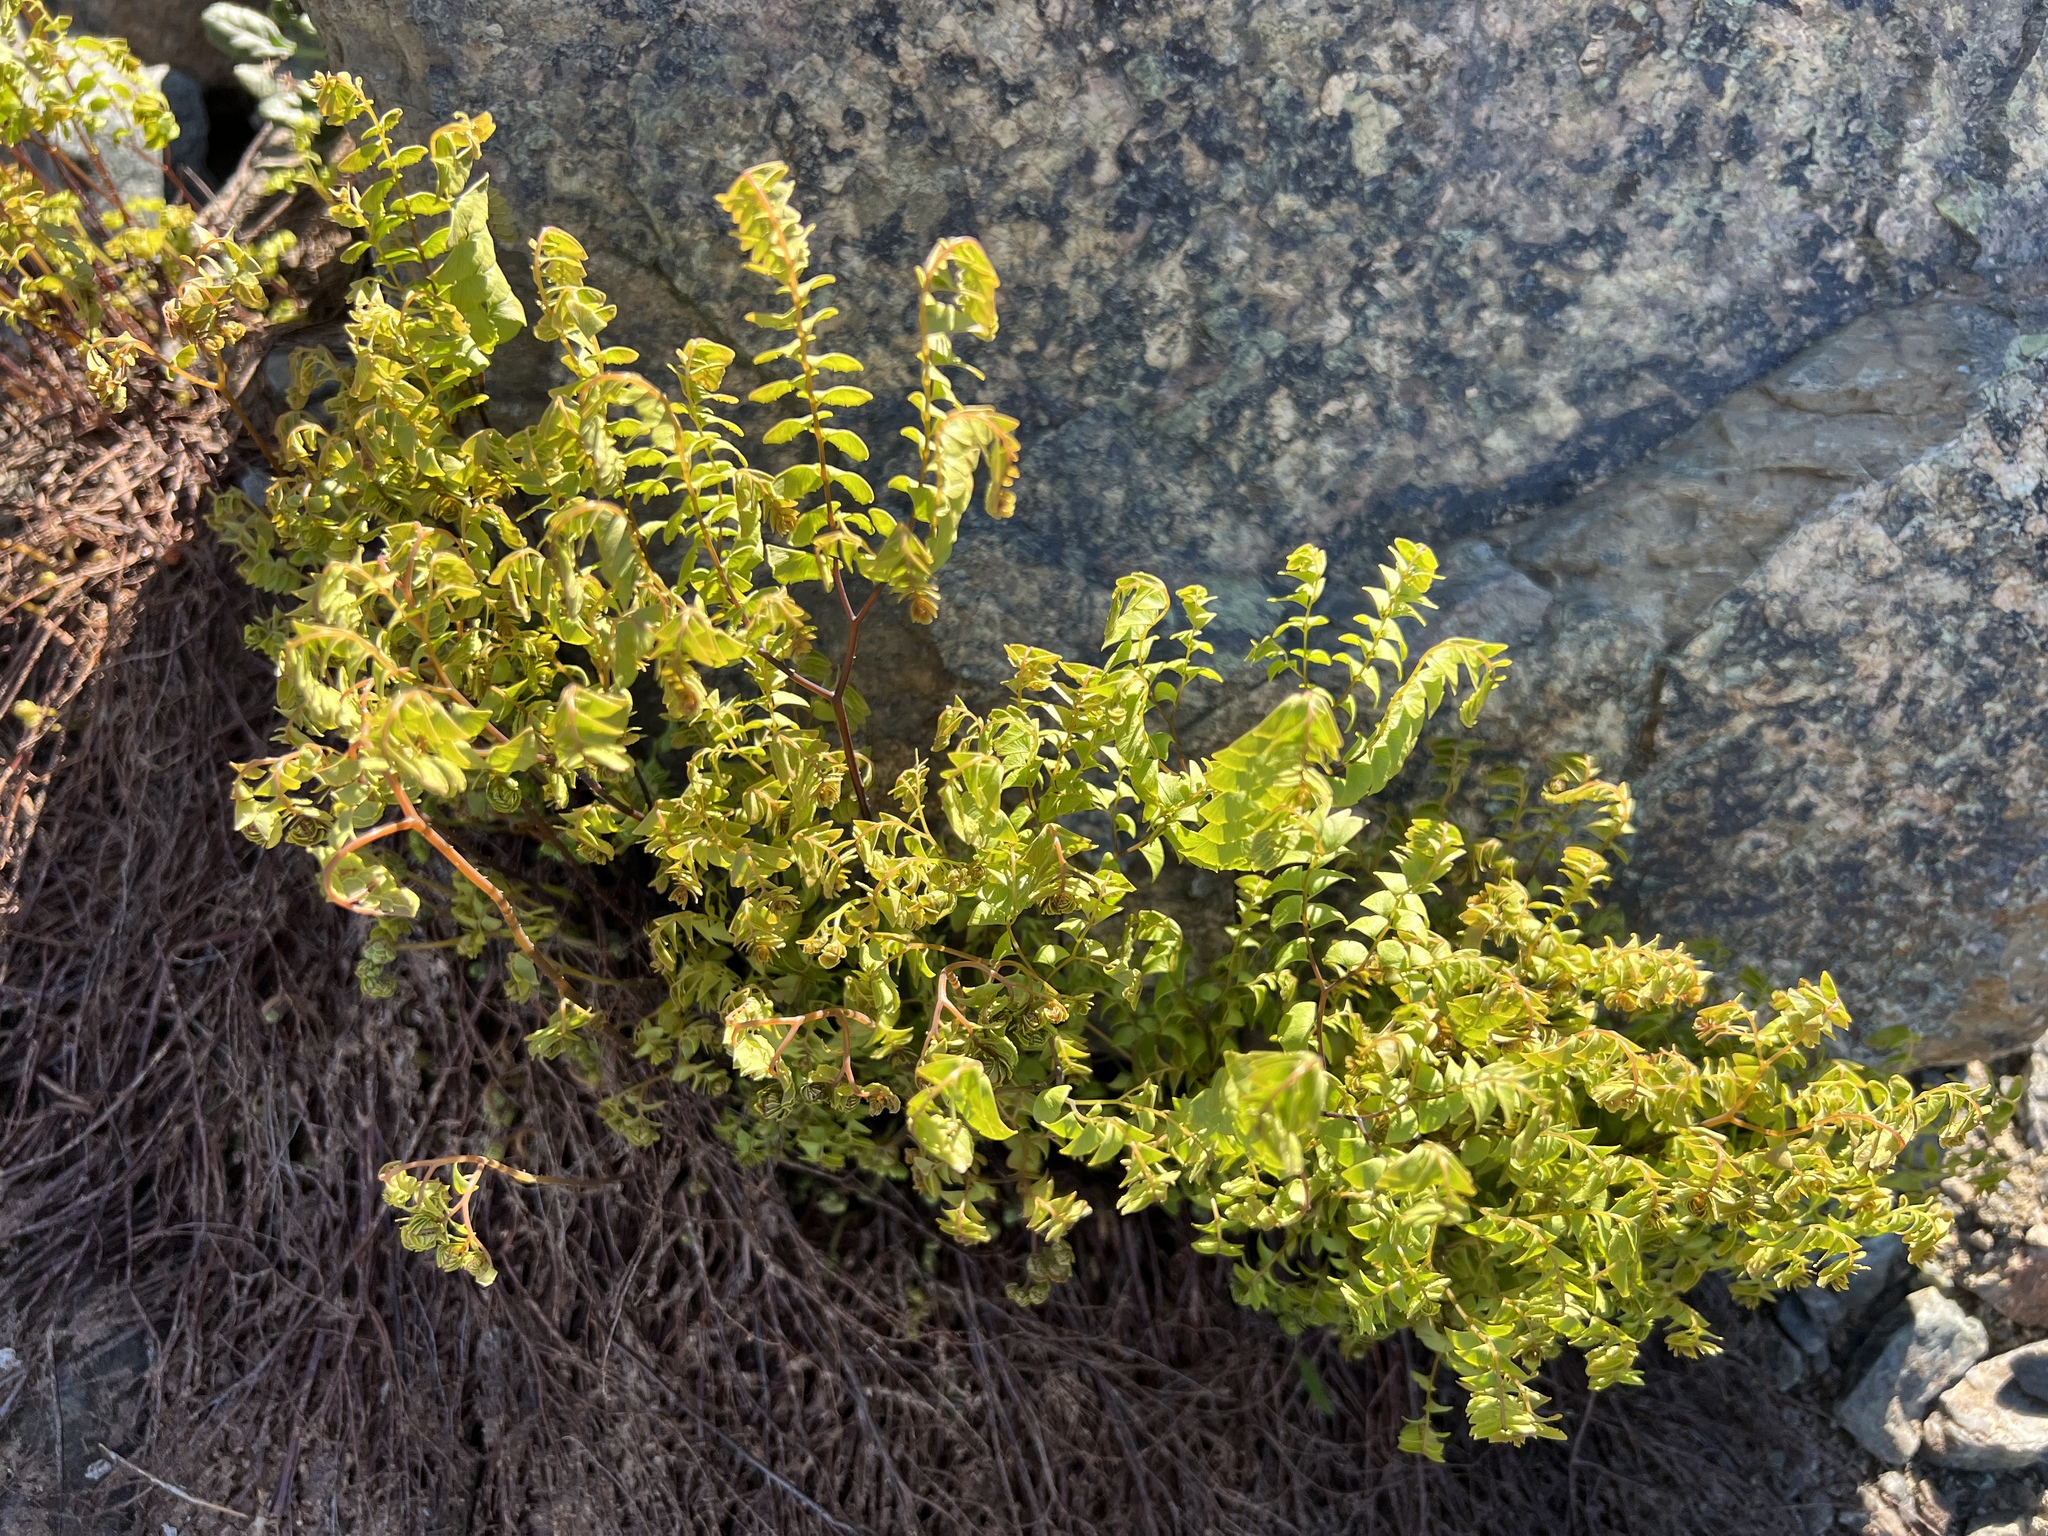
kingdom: Plantae
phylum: Tracheophyta
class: Polypodiopsida
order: Polypodiales
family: Pteridaceae
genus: Adiantum
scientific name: Adiantum aleuticum
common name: Aleutian maidenhair fern
